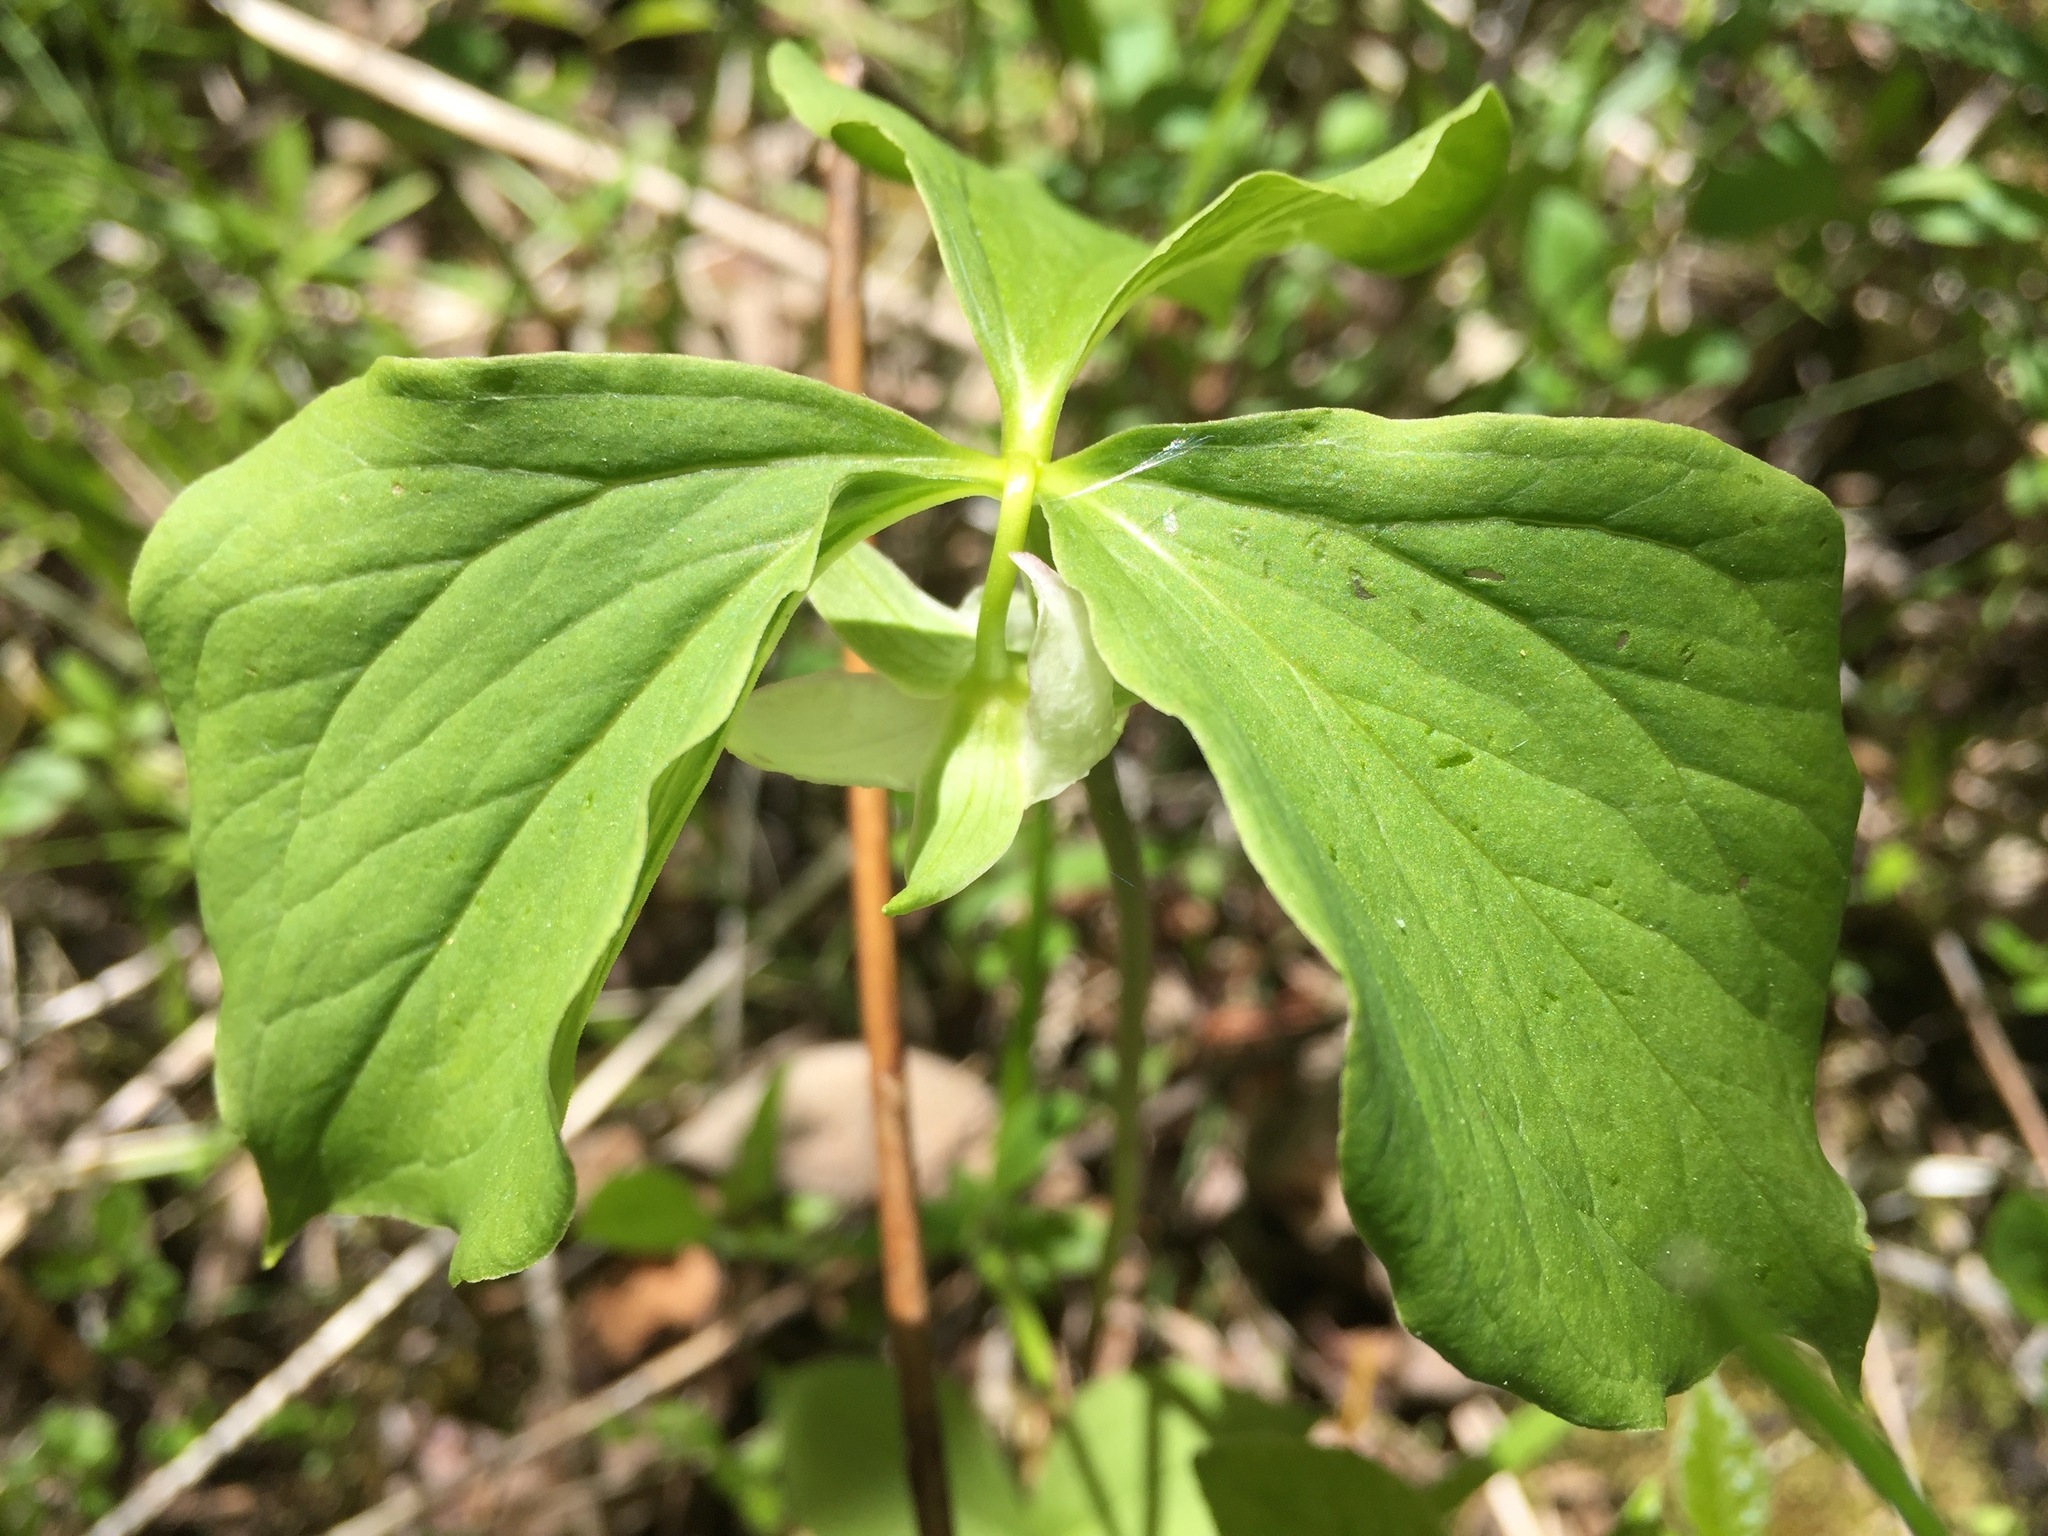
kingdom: Plantae
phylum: Tracheophyta
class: Liliopsida
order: Liliales
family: Melanthiaceae
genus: Trillium
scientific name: Trillium cernuum
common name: Nodding trillium
